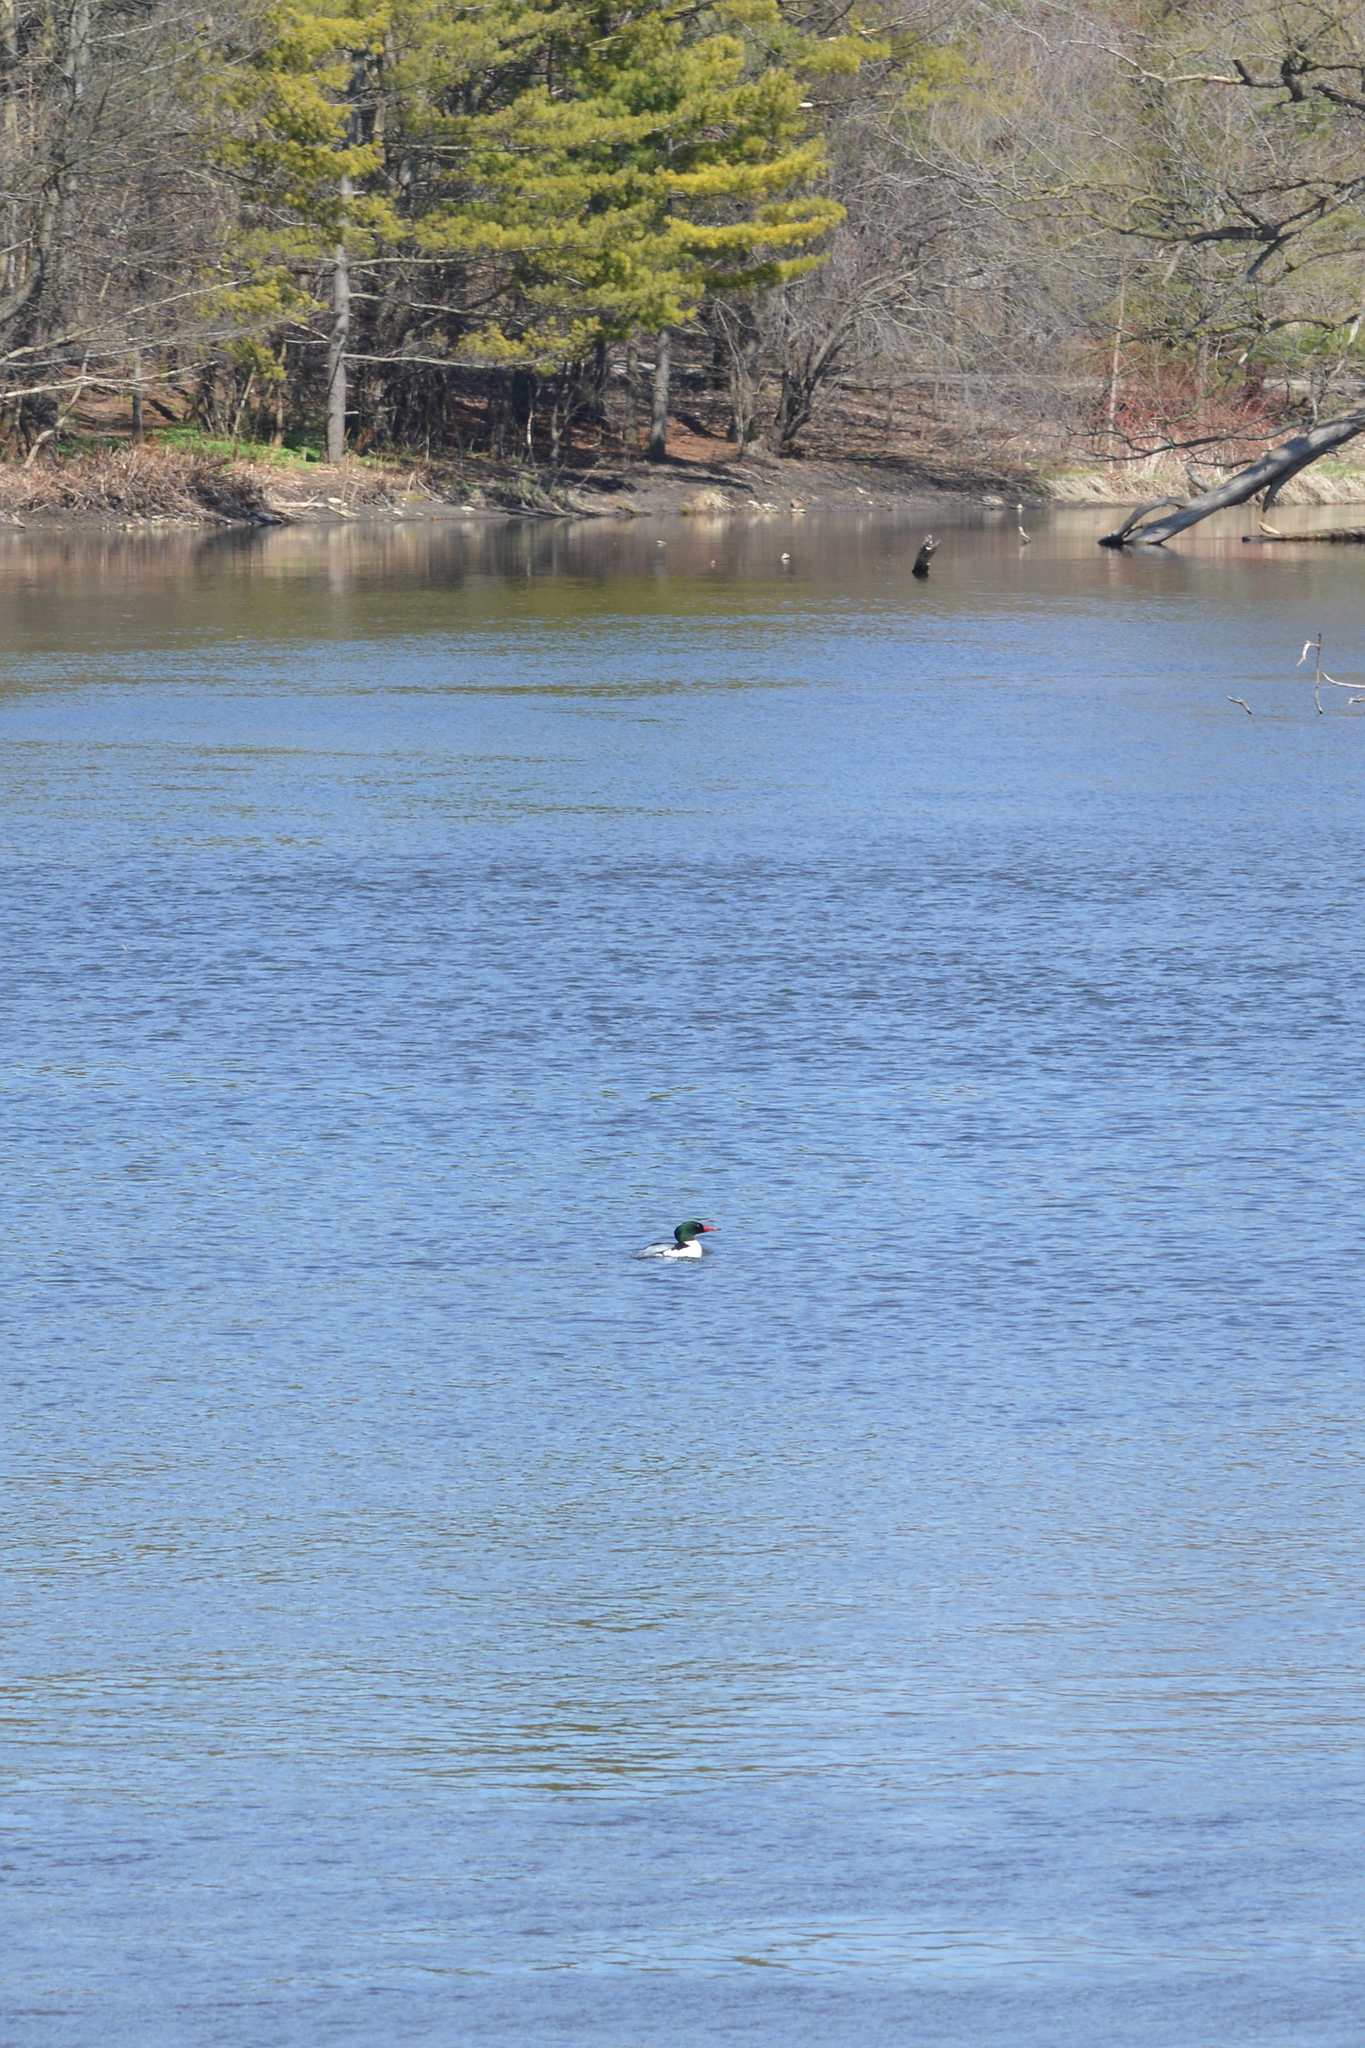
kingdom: Animalia
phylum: Chordata
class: Aves
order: Anseriformes
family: Anatidae
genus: Mergus
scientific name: Mergus merganser
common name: Common merganser
